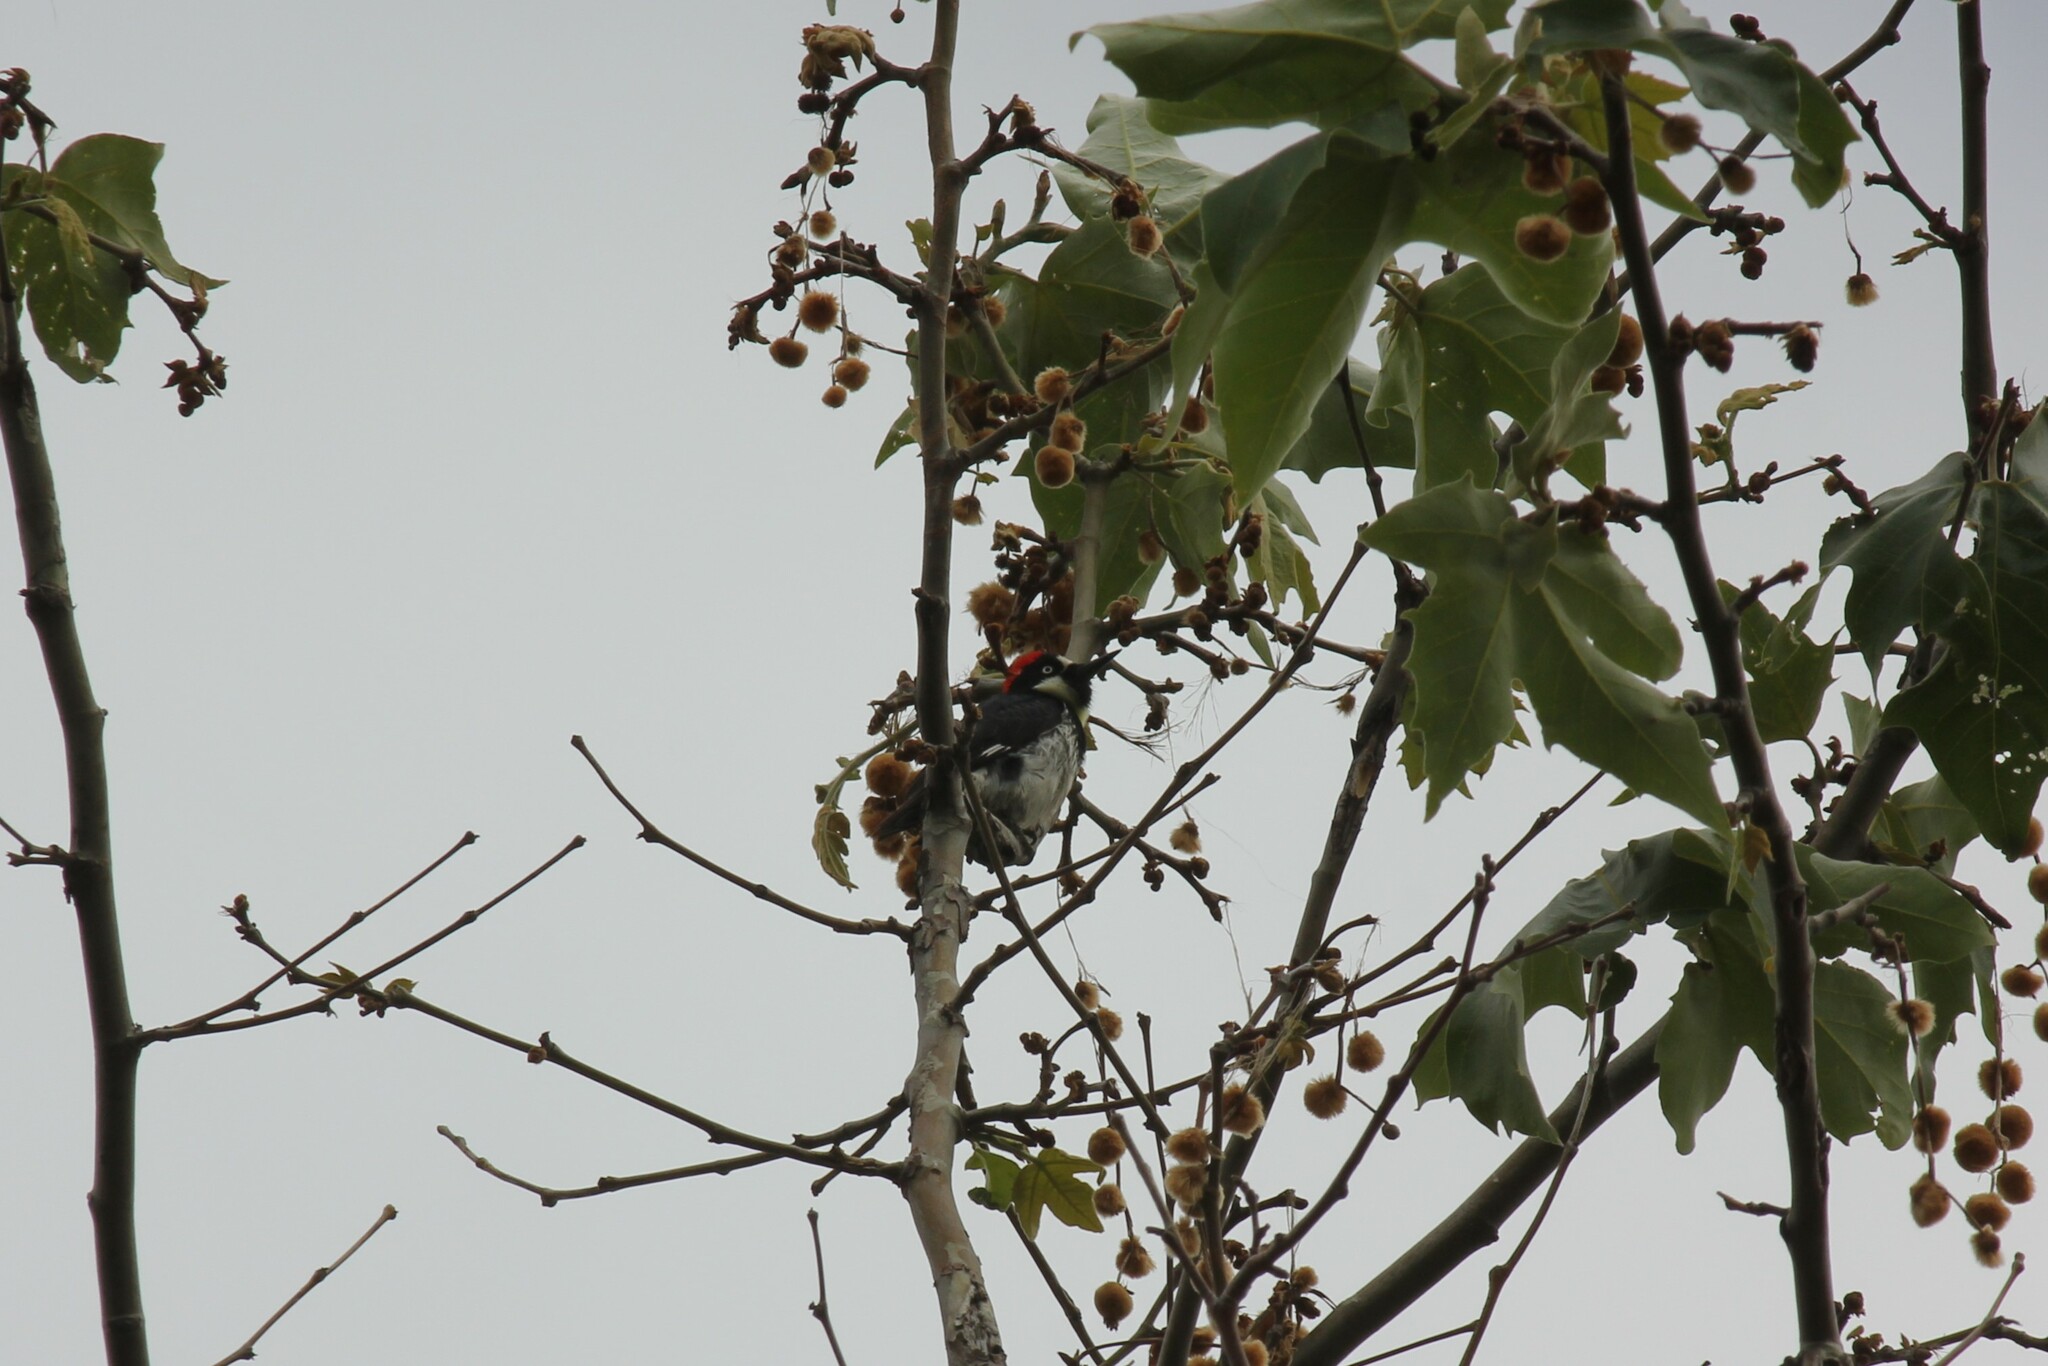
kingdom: Animalia
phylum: Chordata
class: Aves
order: Piciformes
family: Picidae
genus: Melanerpes
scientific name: Melanerpes formicivorus
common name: Acorn woodpecker
